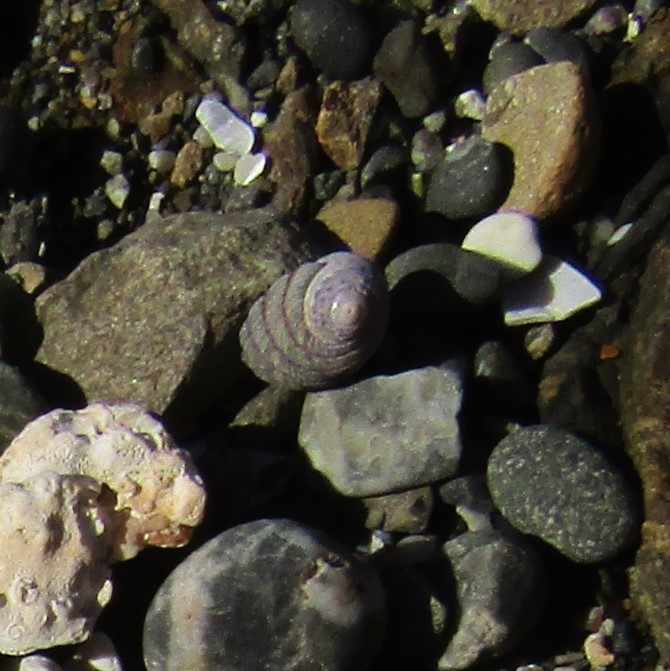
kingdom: Animalia
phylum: Mollusca
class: Gastropoda
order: Trochida
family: Trochidae
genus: Diloma
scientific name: Diloma aethiops
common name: Scorched monodont
